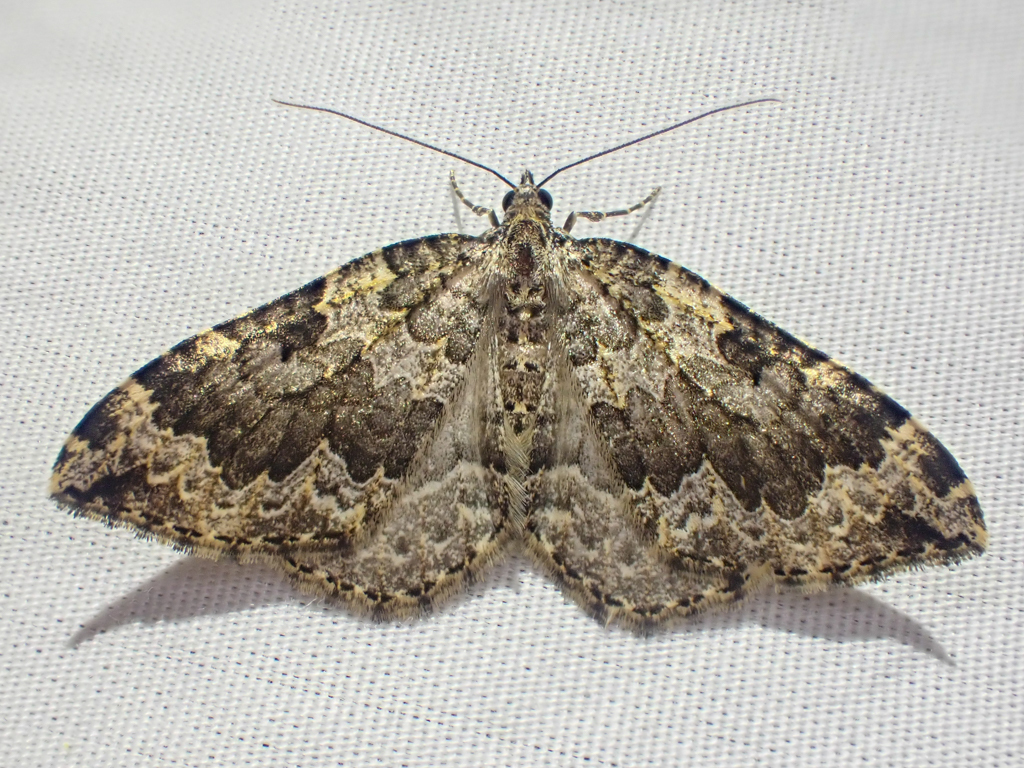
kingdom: Animalia
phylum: Arthropoda
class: Insecta
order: Lepidoptera
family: Geometridae
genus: Eustroma
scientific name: Eustroma semiatrata
